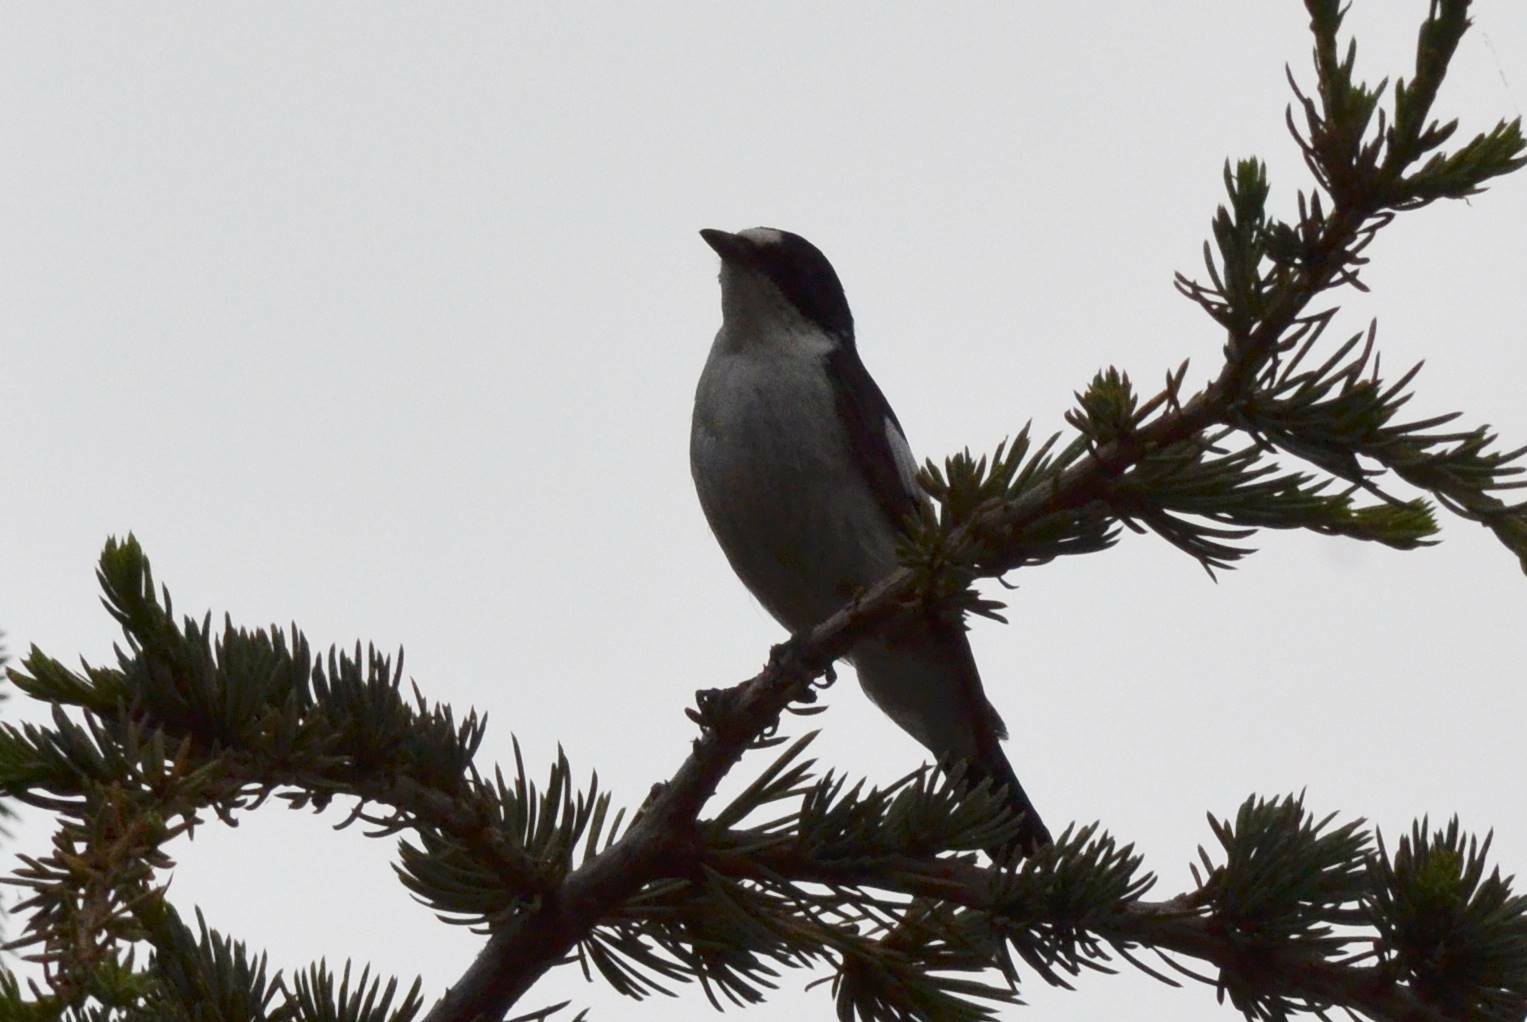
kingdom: Animalia
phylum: Chordata
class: Aves
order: Passeriformes
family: Muscicapidae
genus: Ficedula
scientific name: Ficedula speculigera
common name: Atlas pied flycatcher
